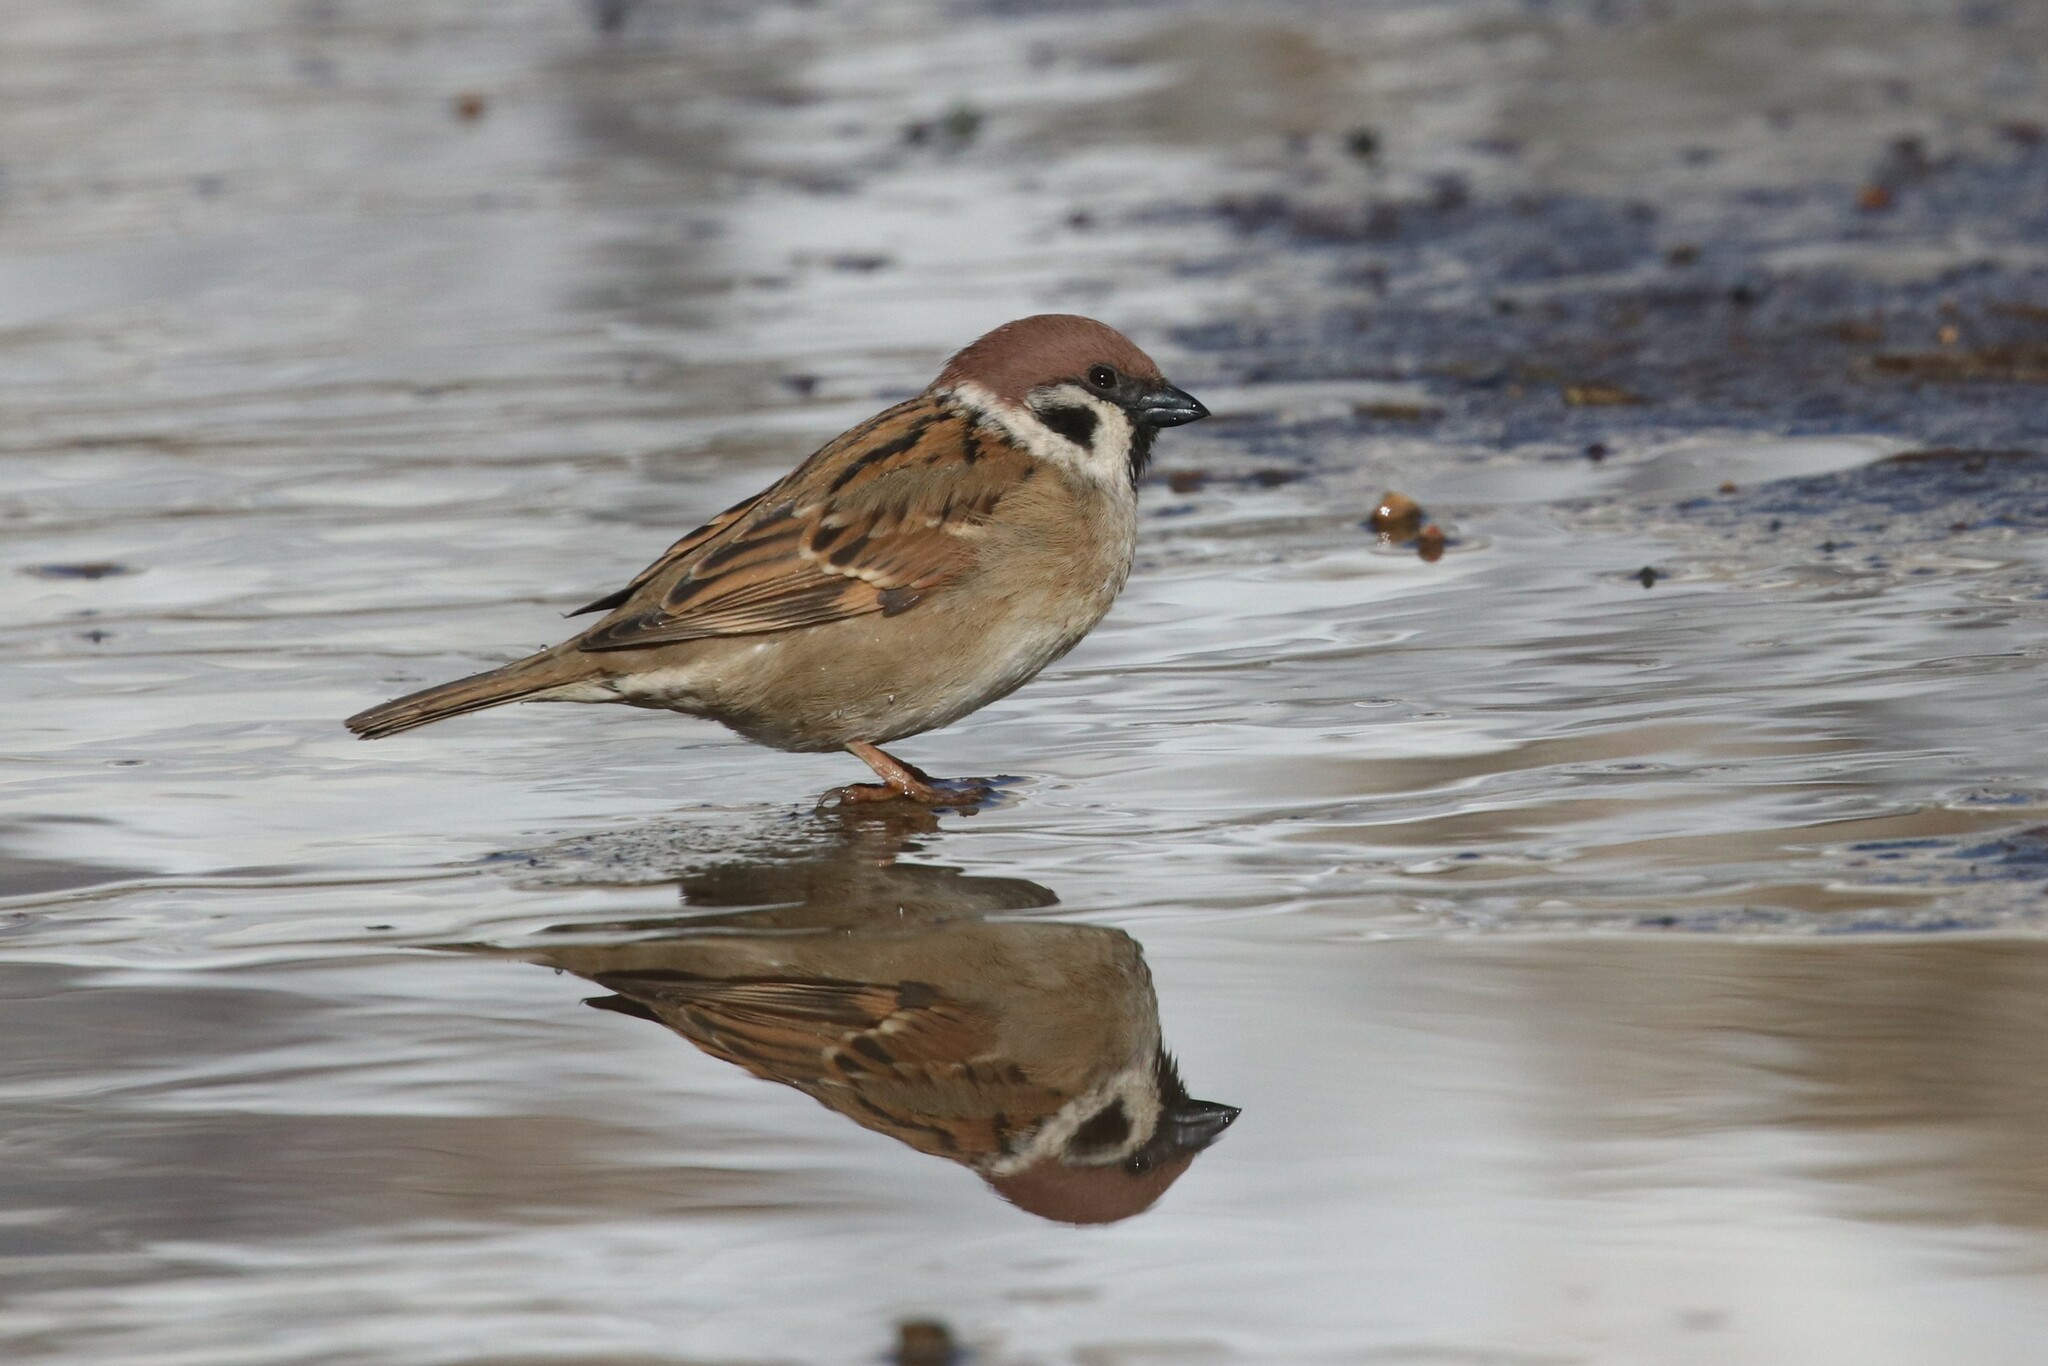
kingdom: Animalia
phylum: Chordata
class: Aves
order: Passeriformes
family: Passeridae
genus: Passer
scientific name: Passer montanus
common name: Eurasian tree sparrow
